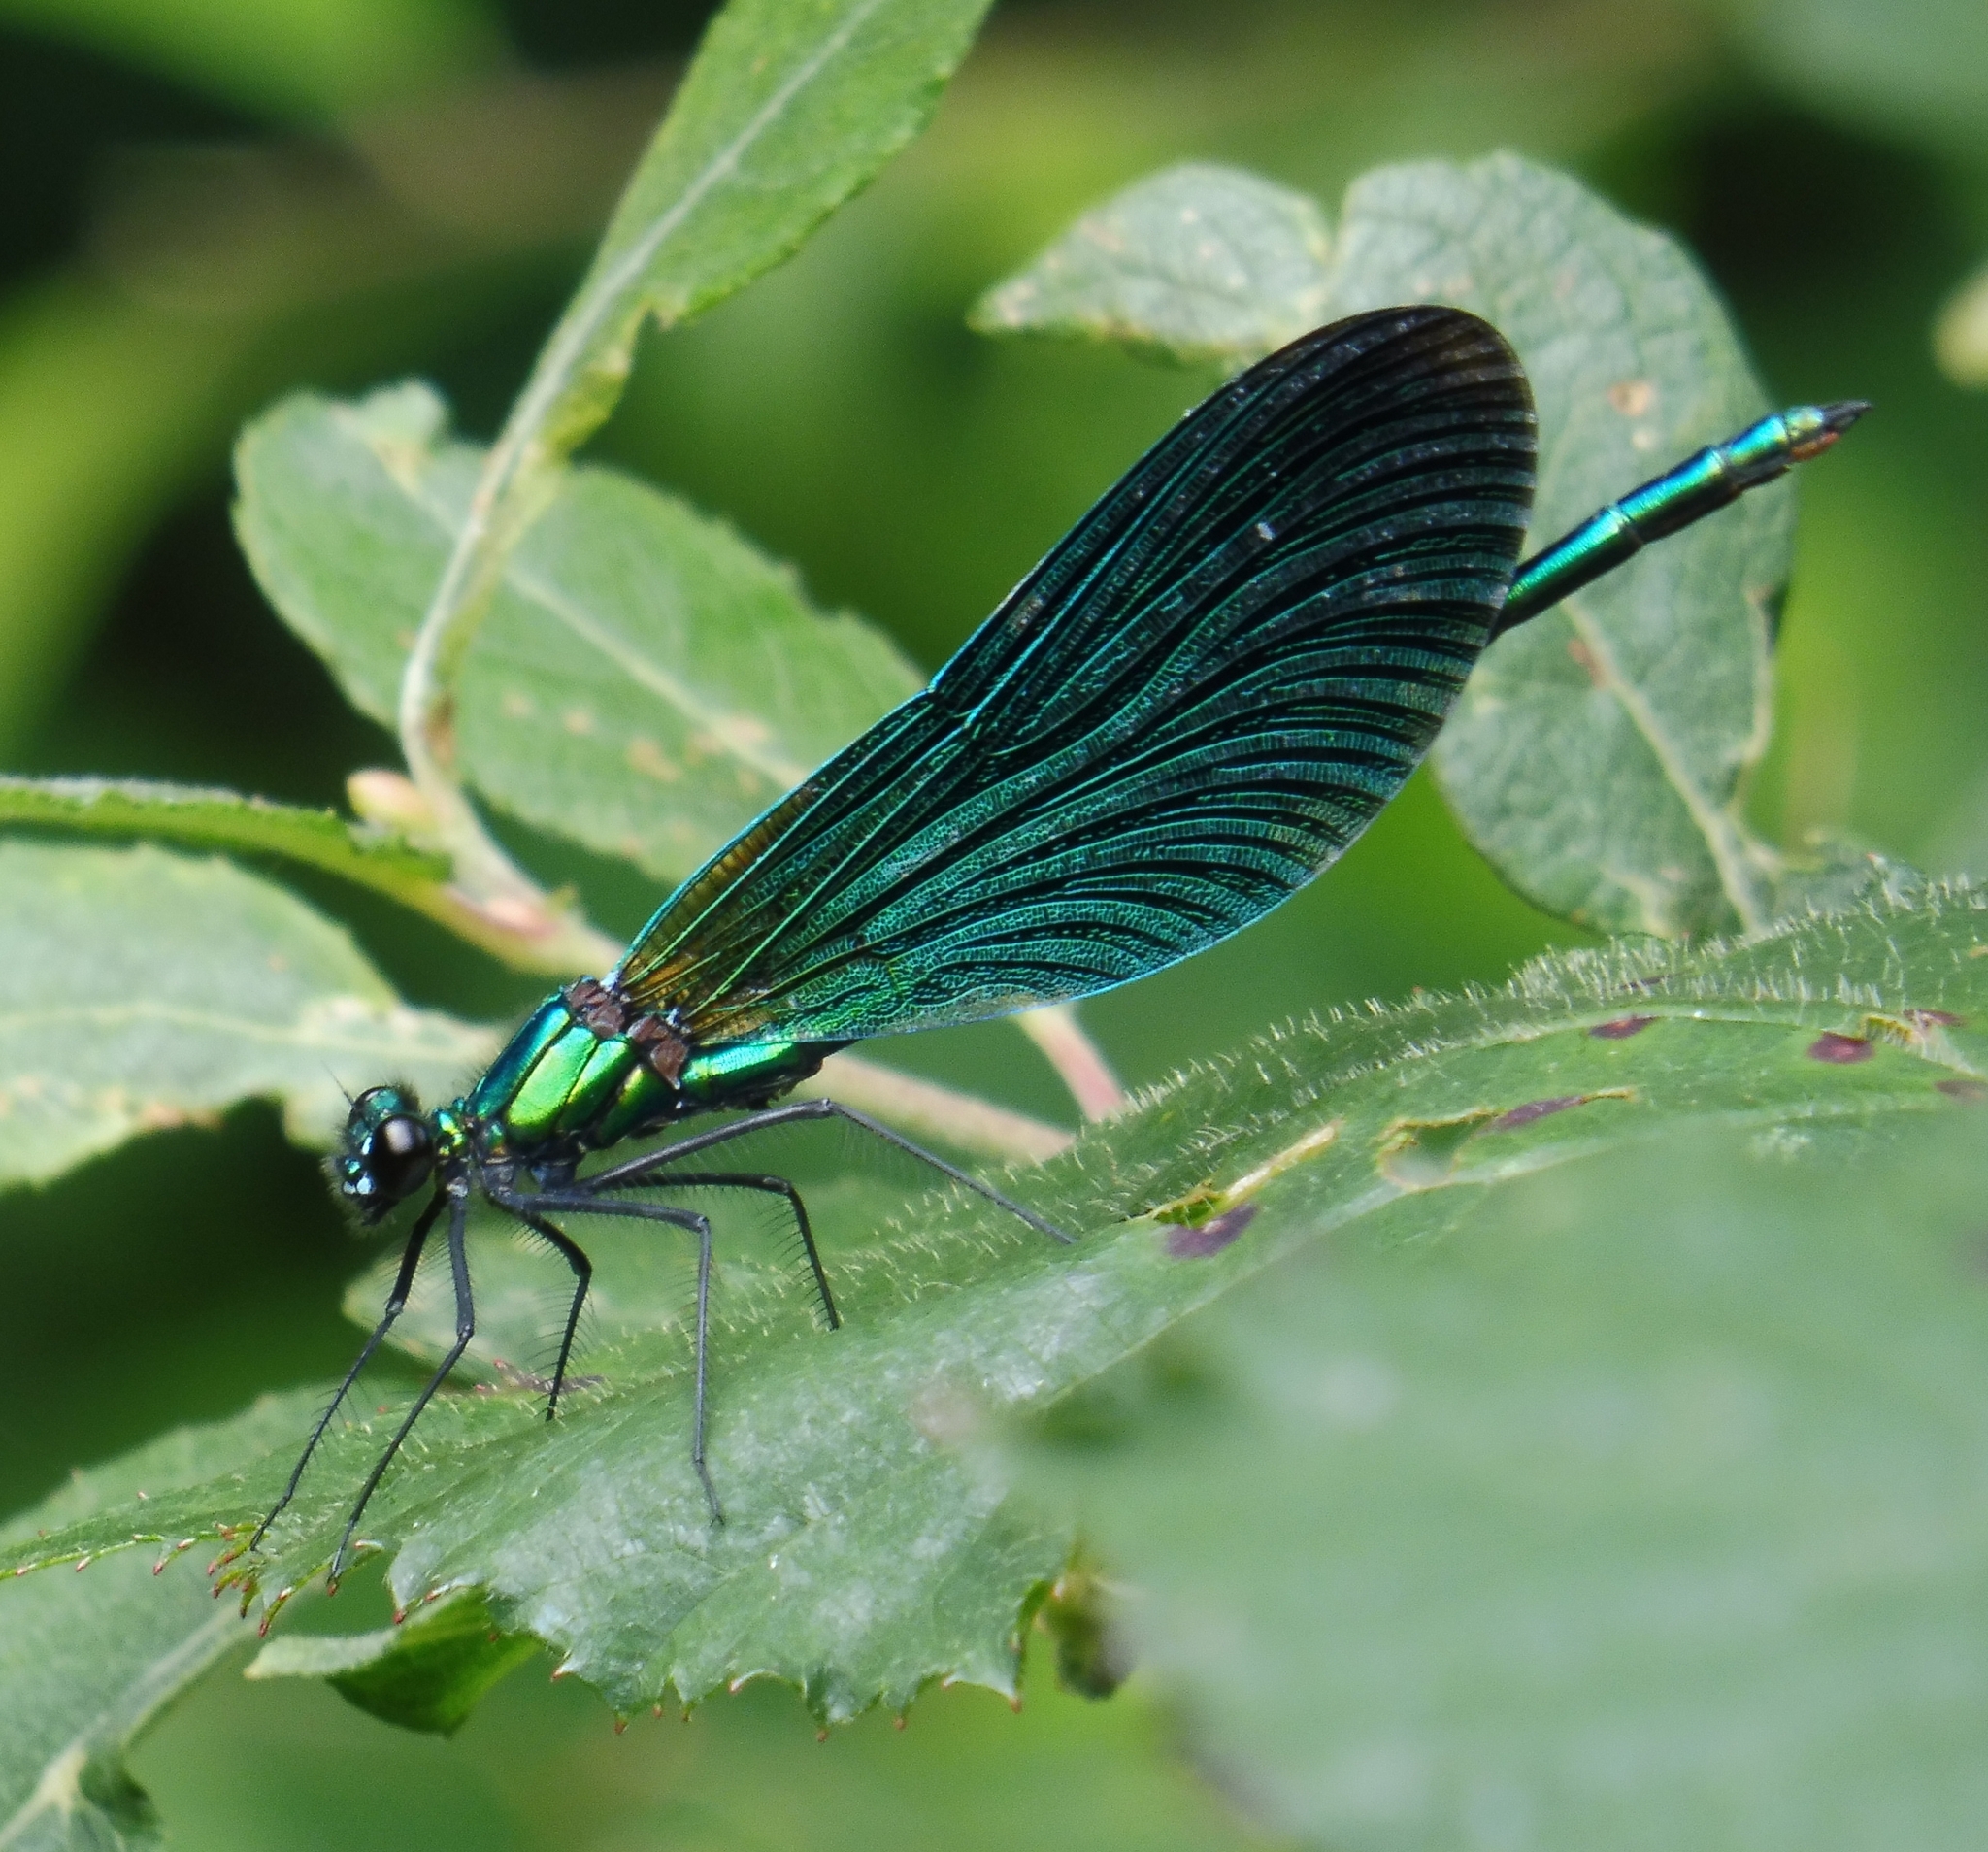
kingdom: Animalia
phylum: Arthropoda
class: Insecta
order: Odonata
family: Calopterygidae
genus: Calopteryx
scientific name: Calopteryx virgo
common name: Beautiful demoiselle
